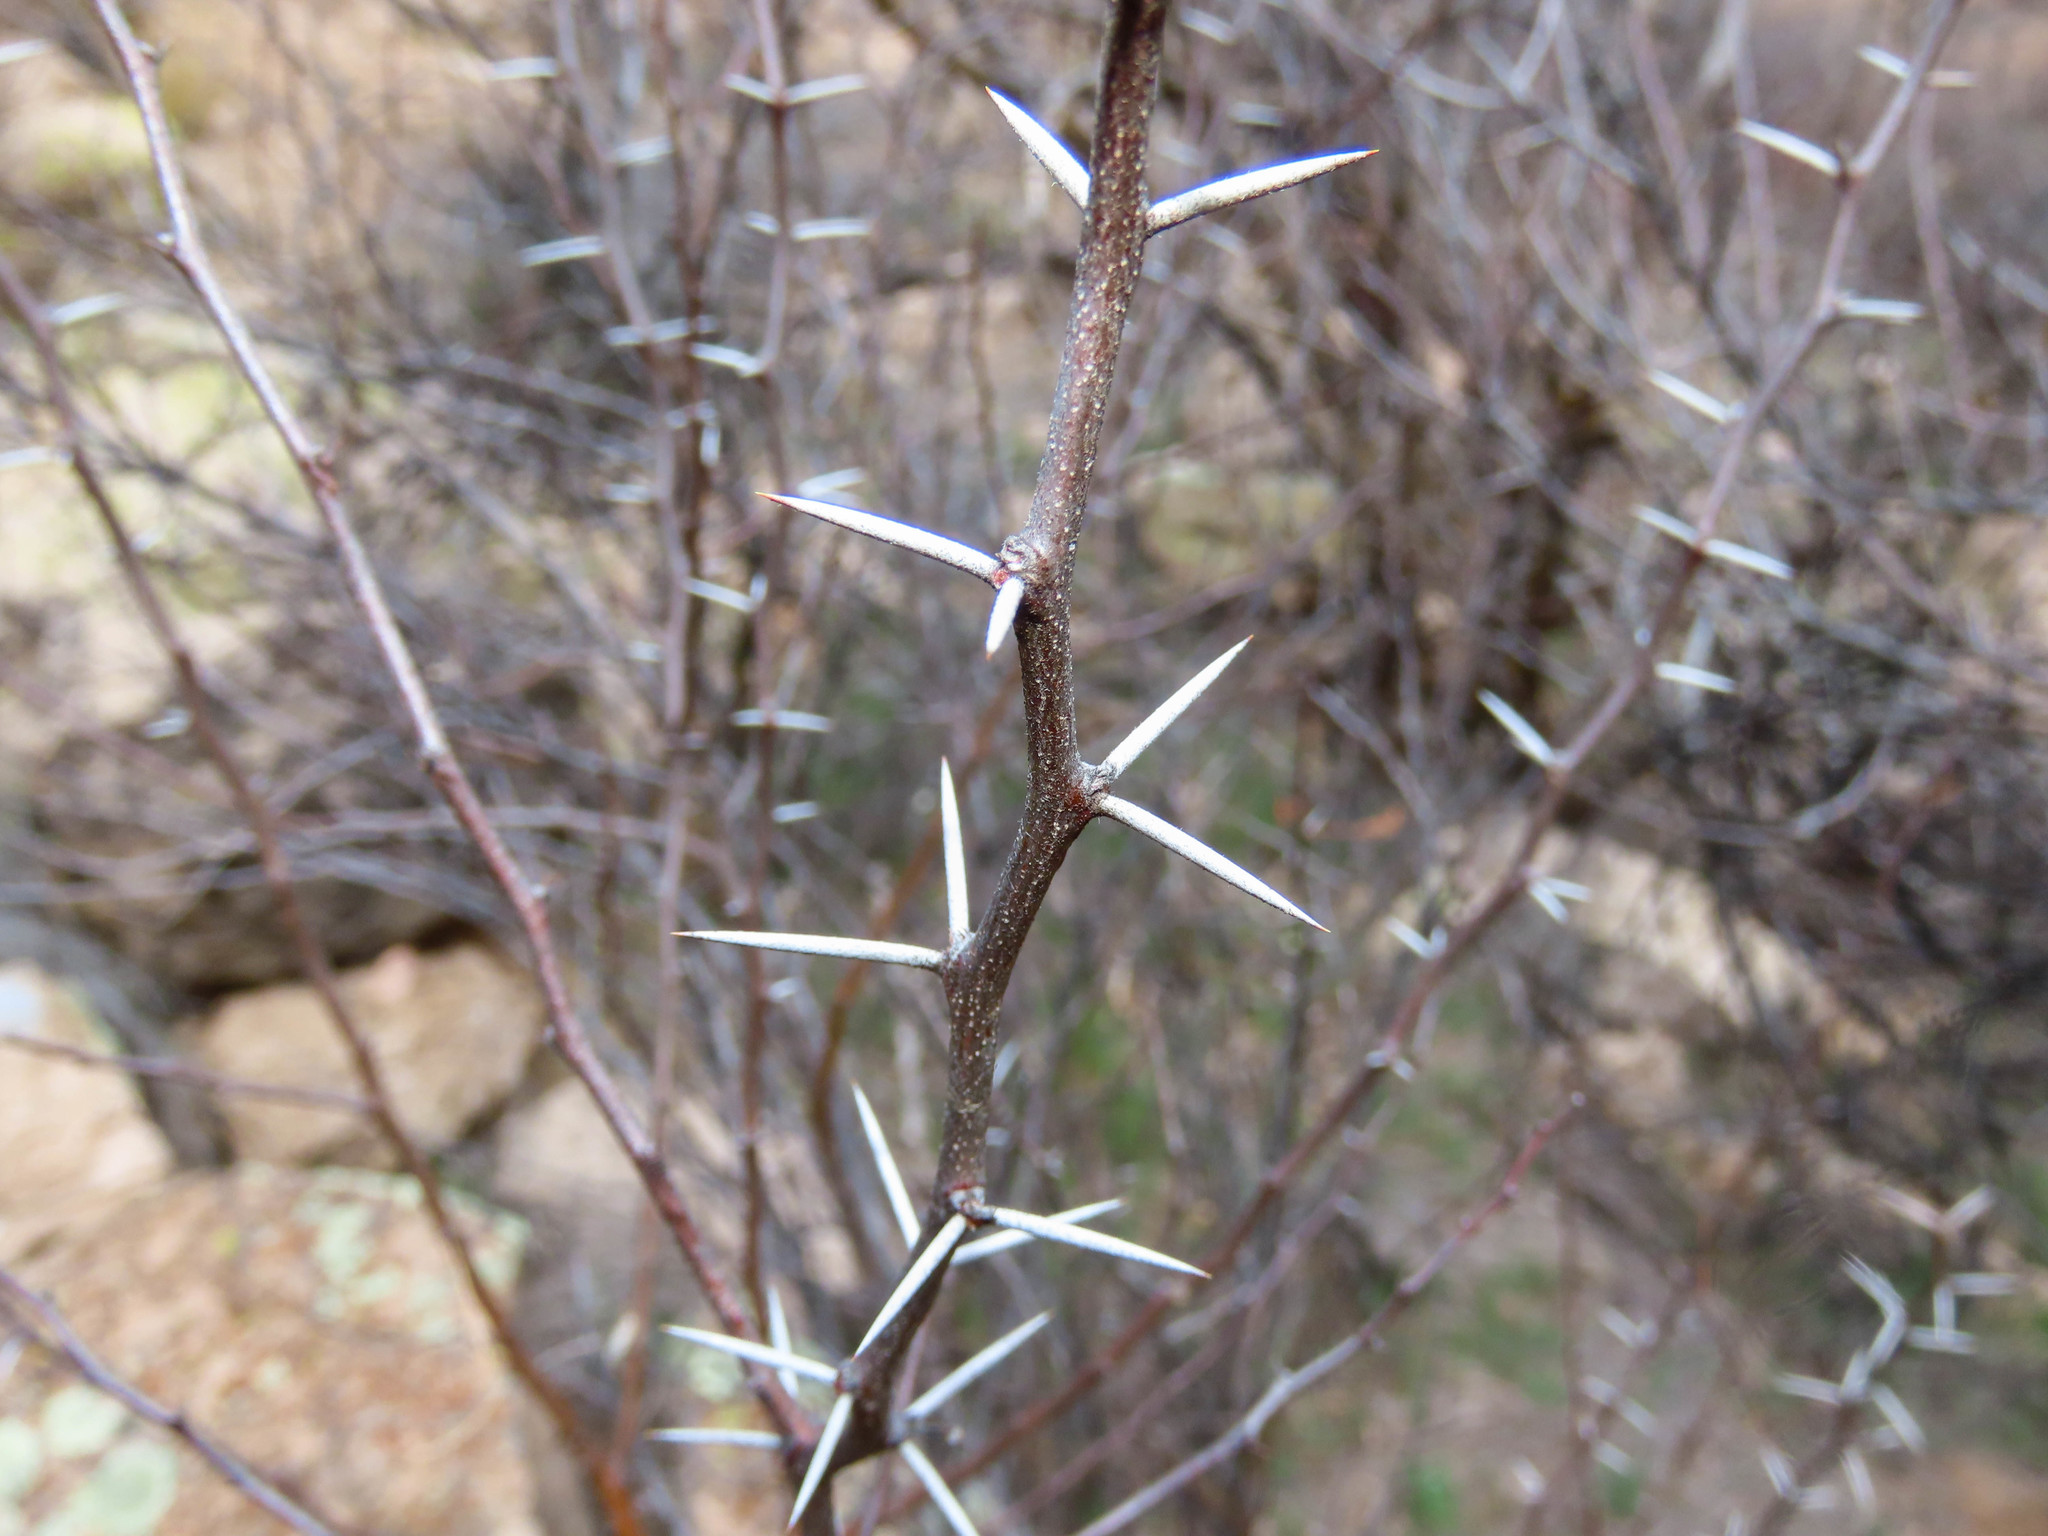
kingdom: Plantae
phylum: Tracheophyta
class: Magnoliopsida
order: Fabales
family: Fabaceae
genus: Vachellia
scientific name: Vachellia constricta
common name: Mescat acacia
